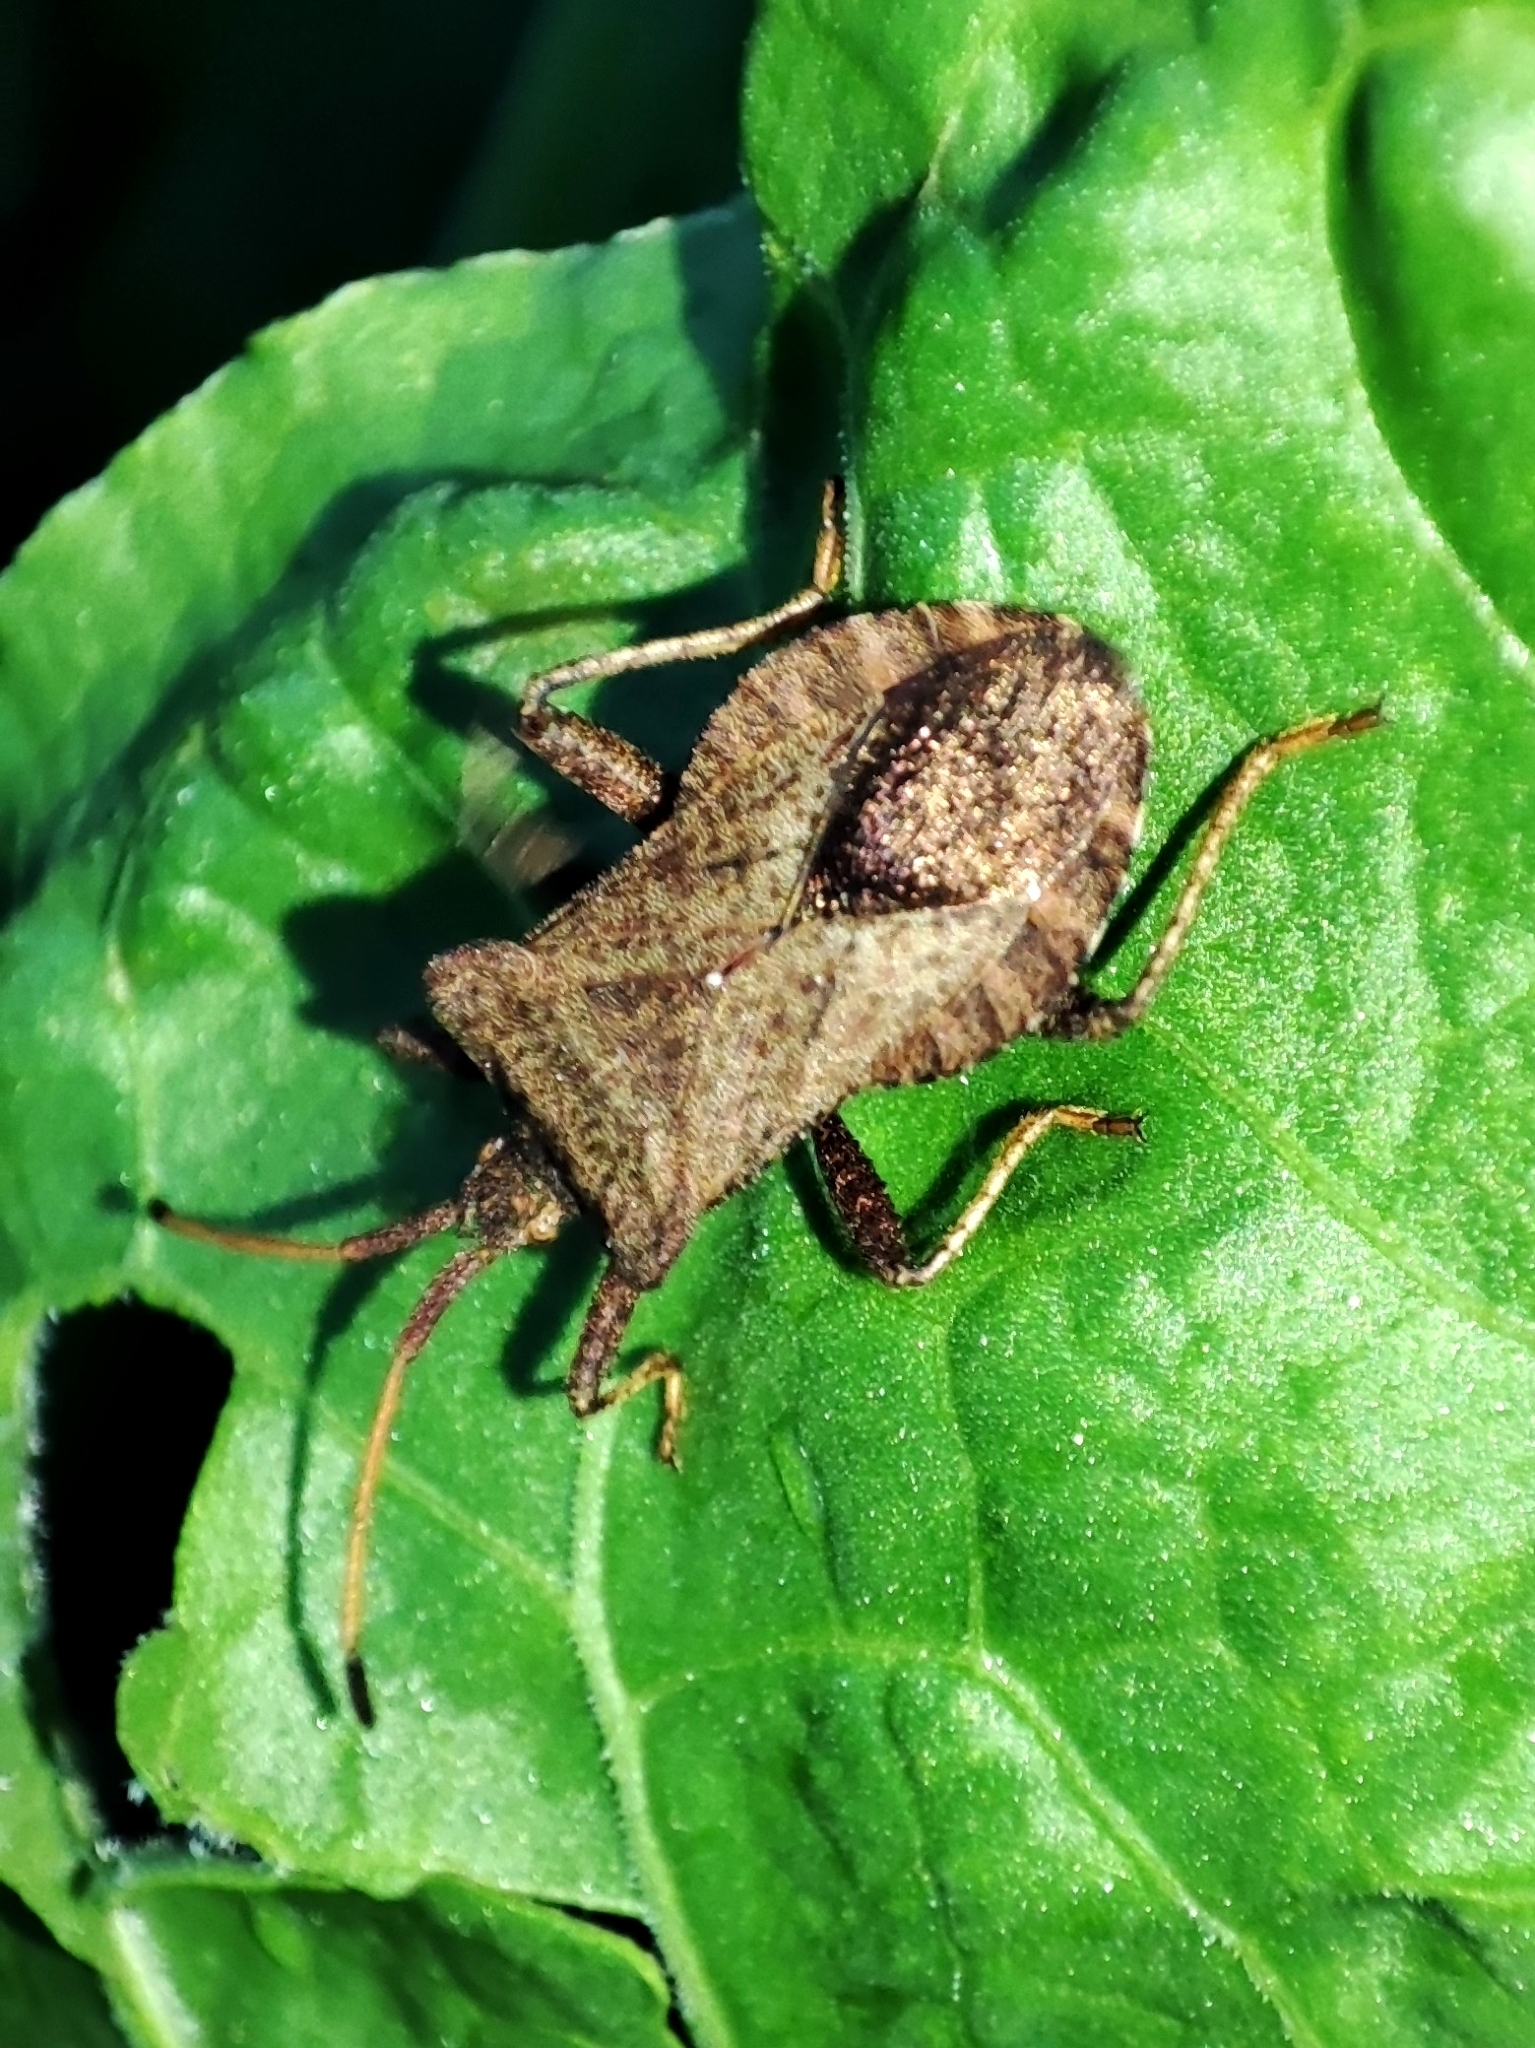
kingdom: Animalia
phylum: Arthropoda
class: Insecta
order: Hemiptera
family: Coreidae
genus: Coreus
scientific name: Coreus marginatus
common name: Dock bug
